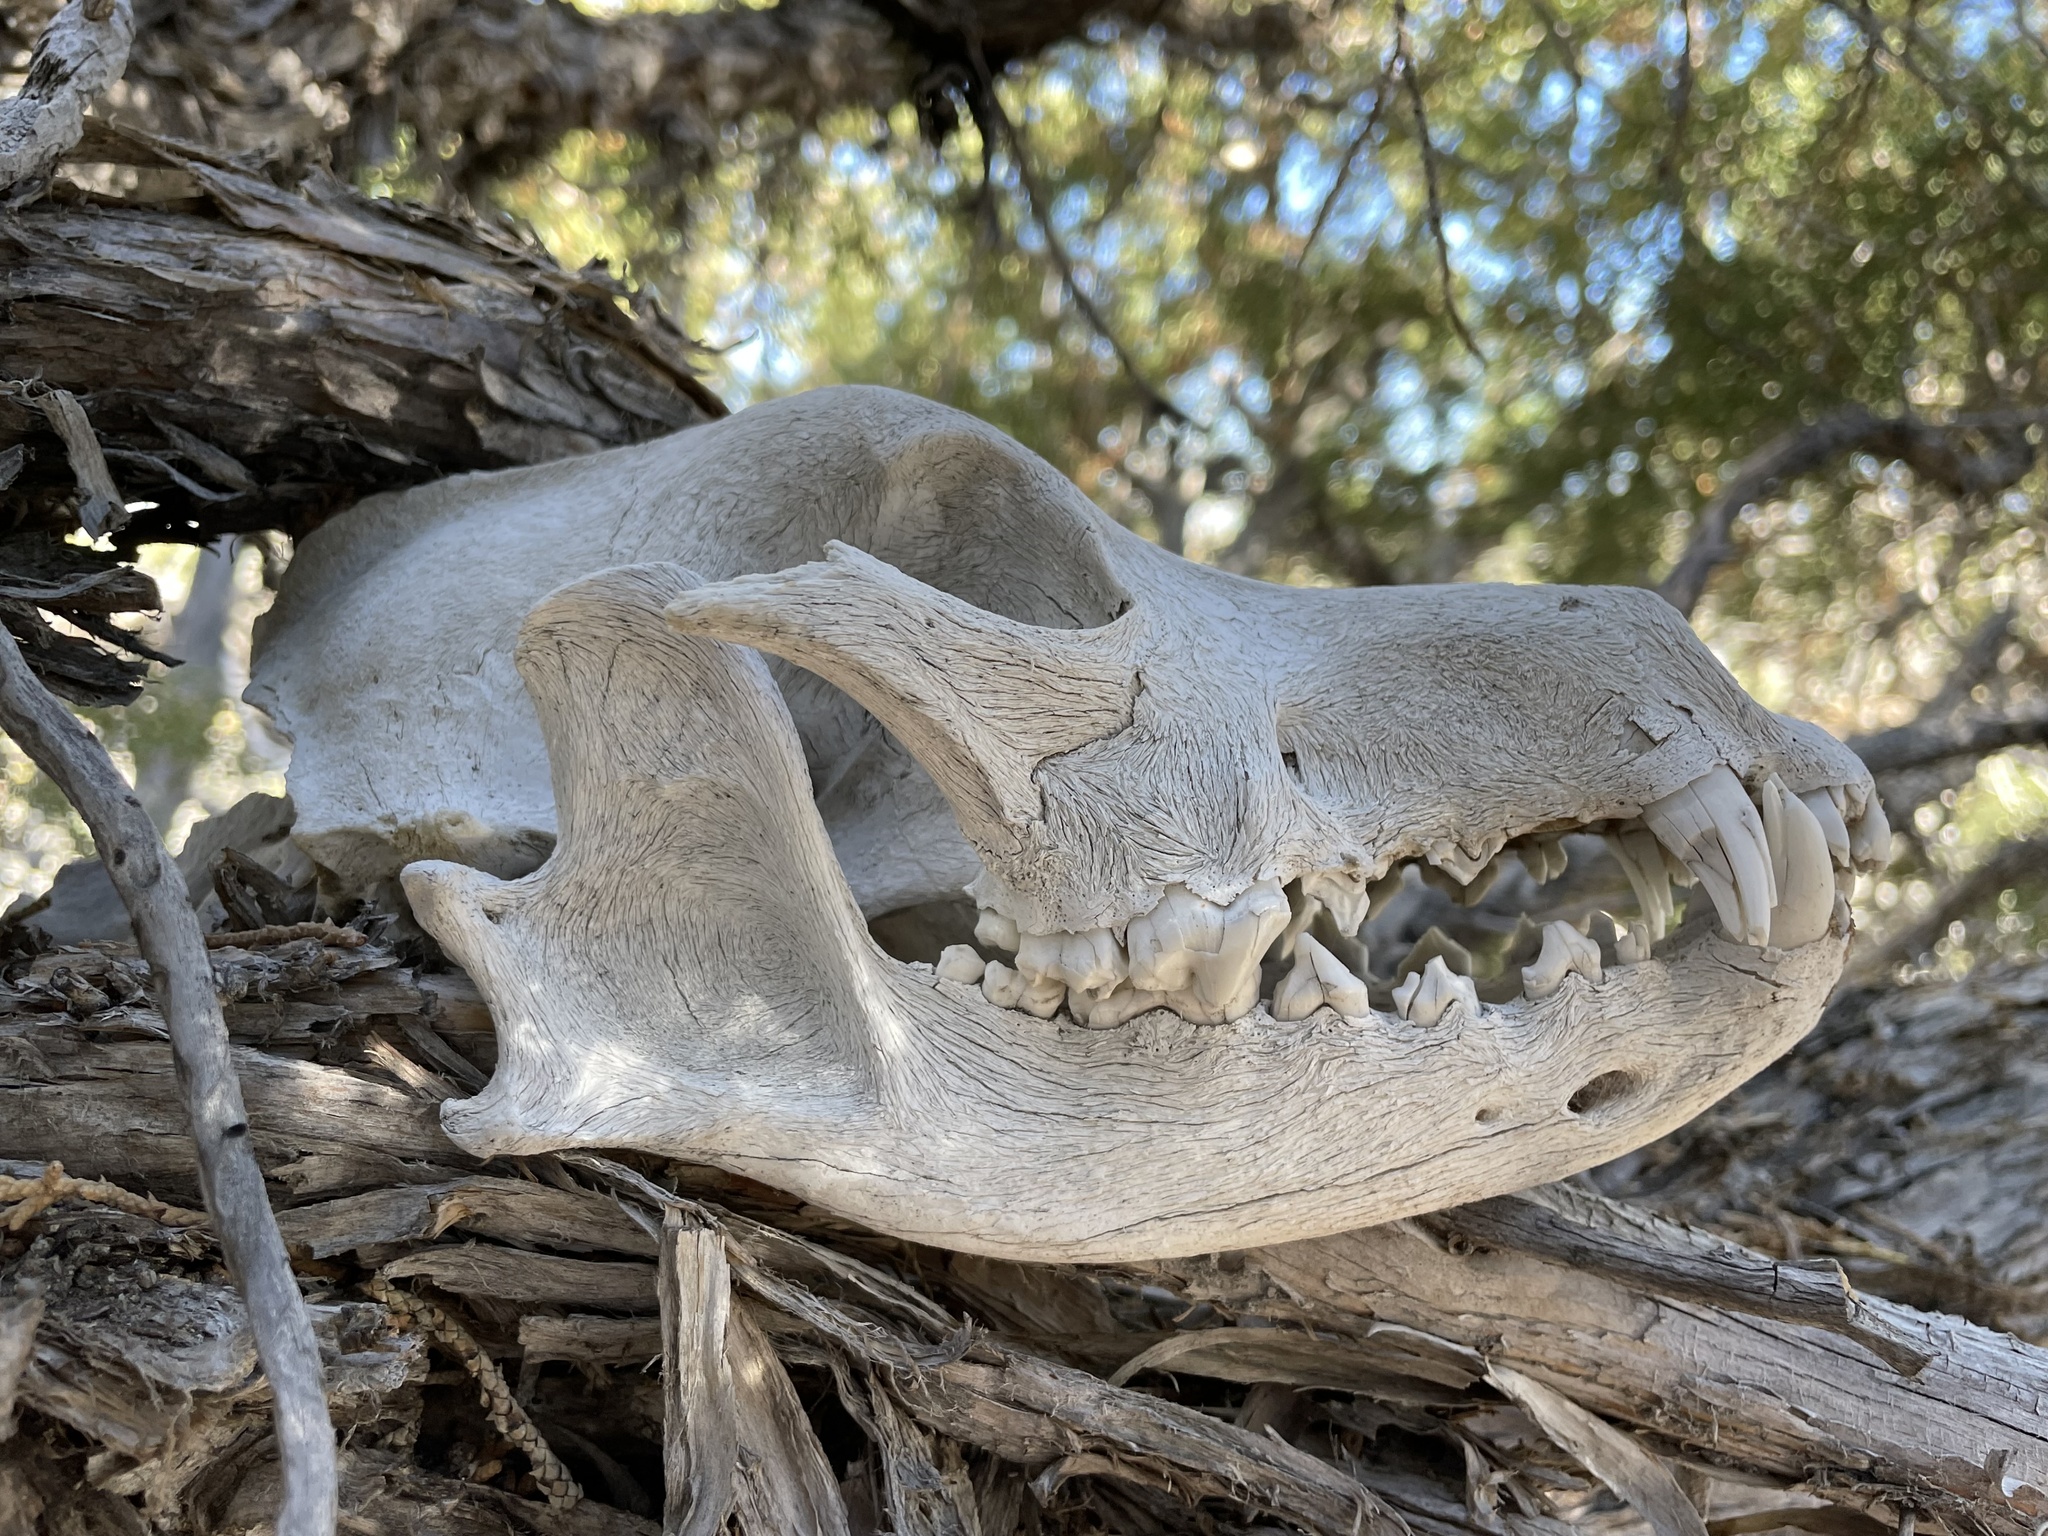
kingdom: Animalia
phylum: Chordata
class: Mammalia
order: Carnivora
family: Canidae
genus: Canis
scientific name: Canis lupus
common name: Gray wolf
